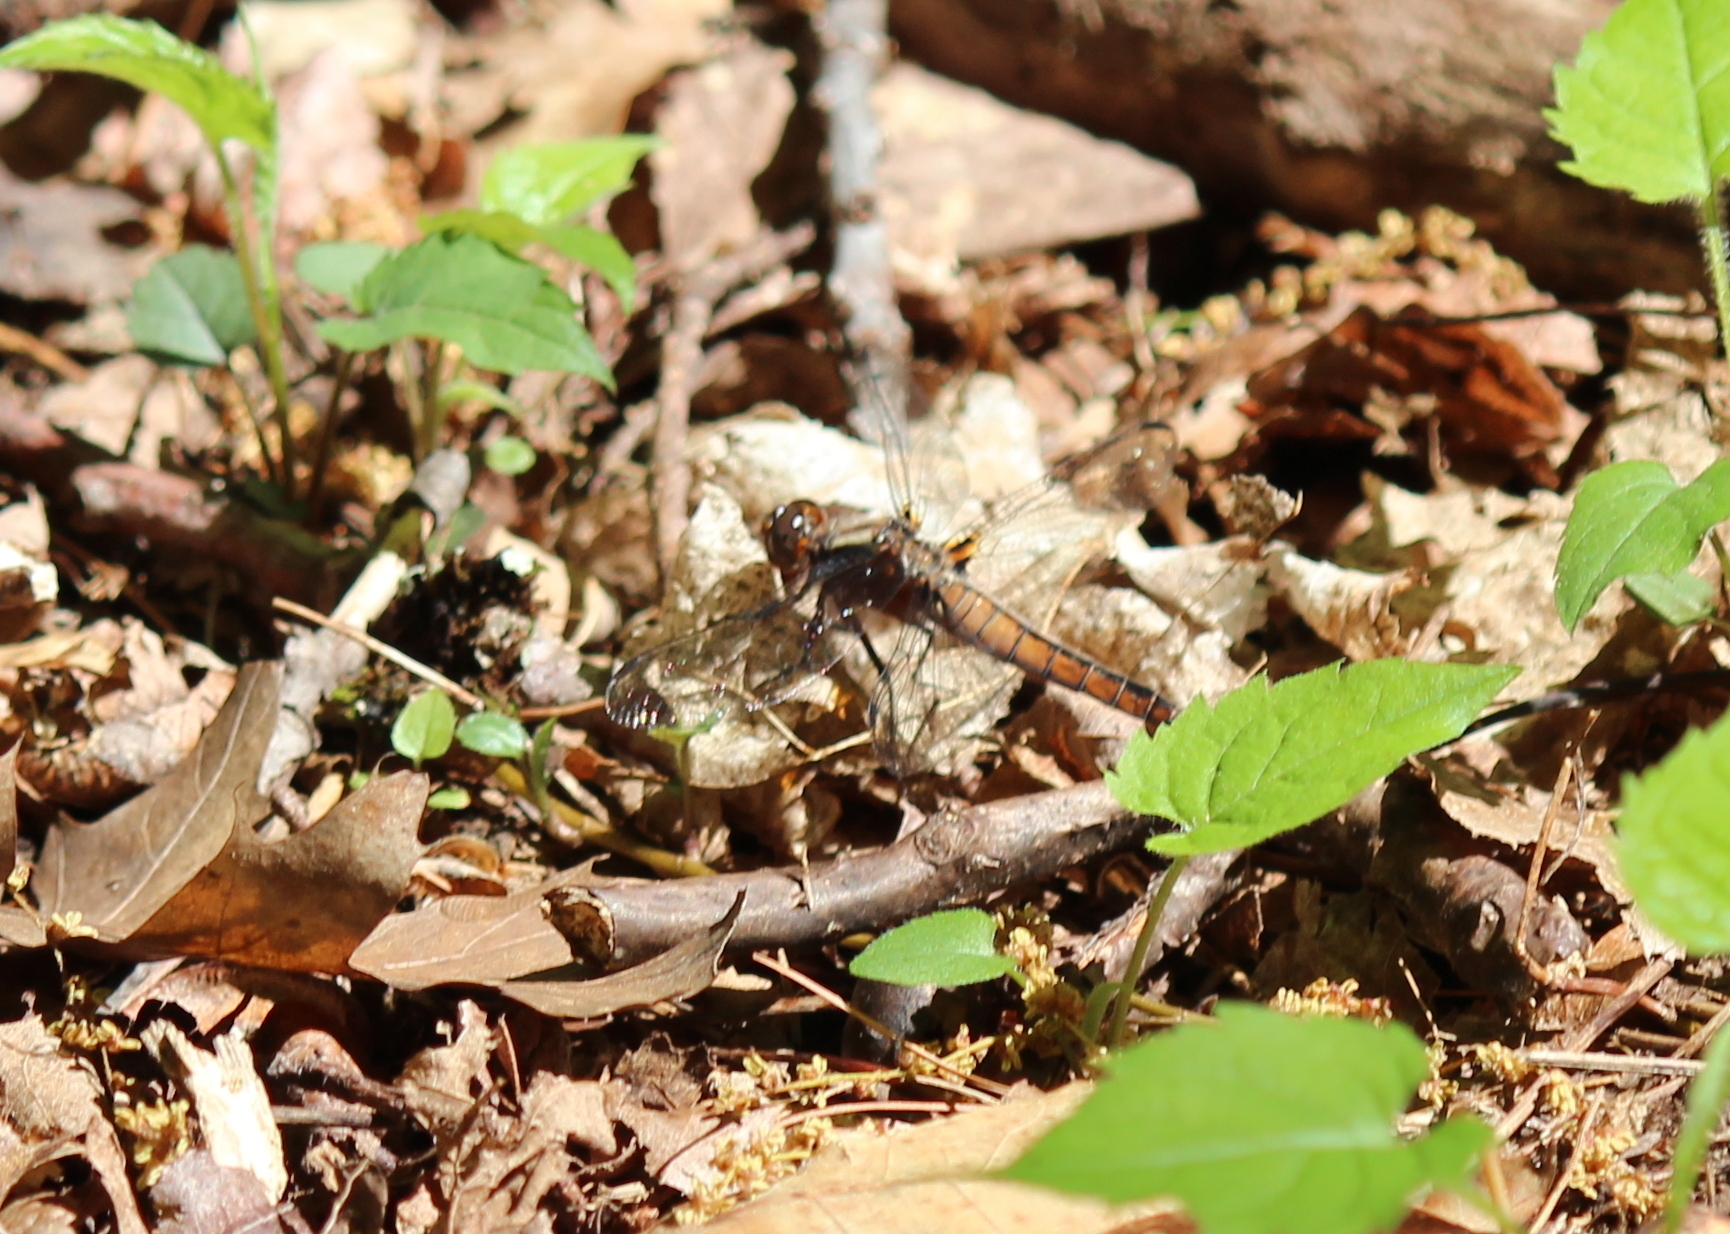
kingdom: Animalia
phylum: Arthropoda
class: Insecta
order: Odonata
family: Libellulidae
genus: Ladona
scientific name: Ladona julia
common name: Chalk-fronted corporal
